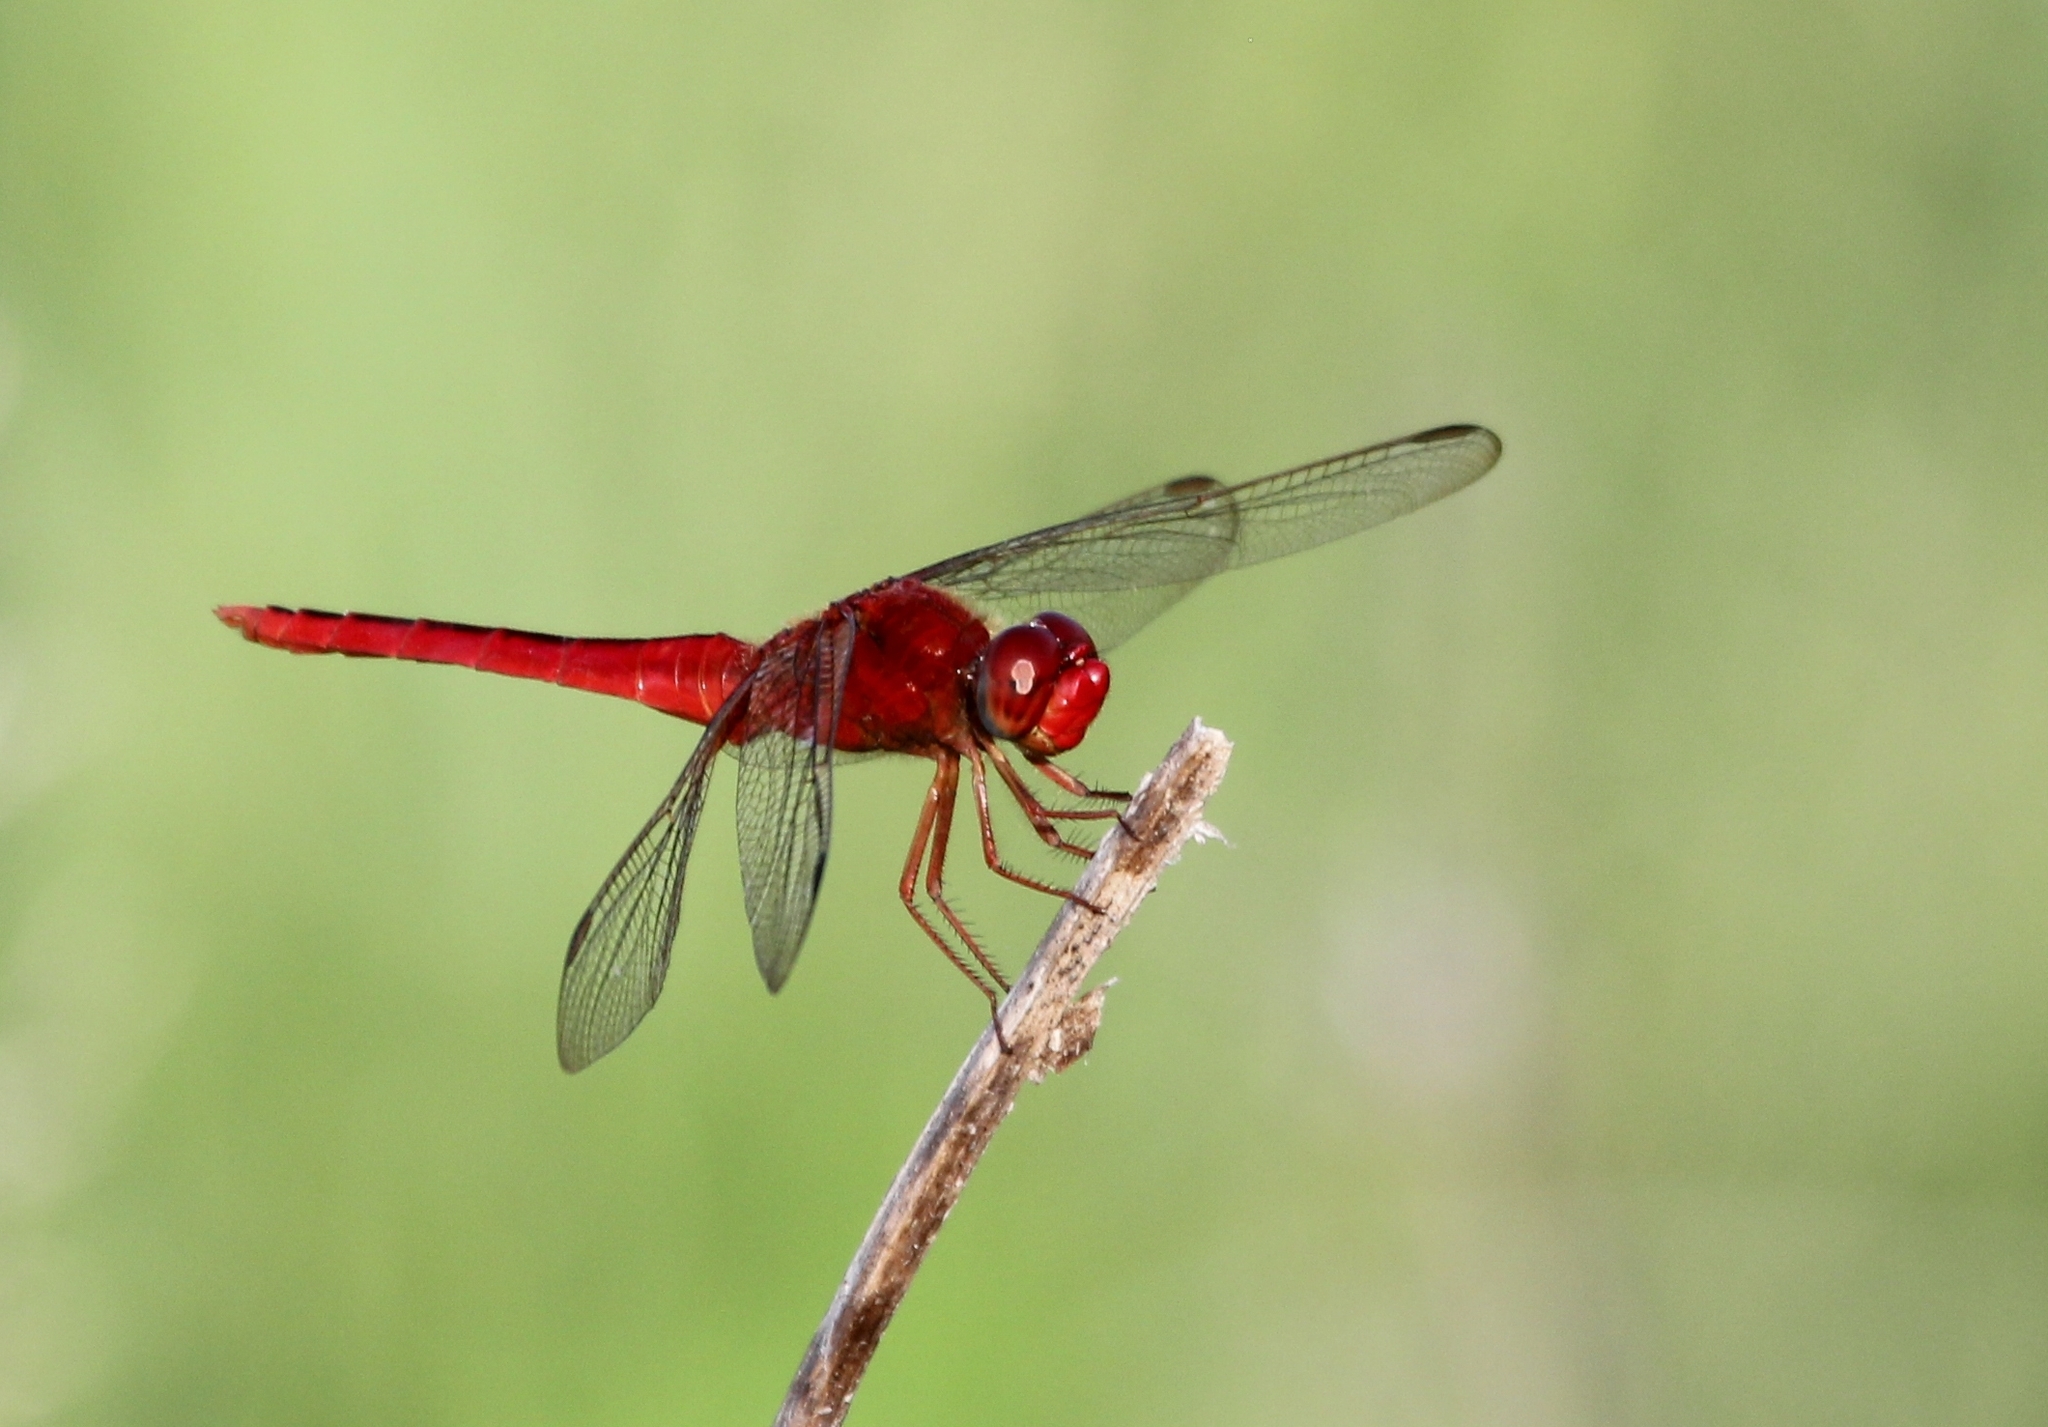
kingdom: Animalia
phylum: Arthropoda
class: Insecta
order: Odonata
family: Libellulidae
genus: Crocothemis
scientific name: Crocothemis servilia
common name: Scarlet skimmer
